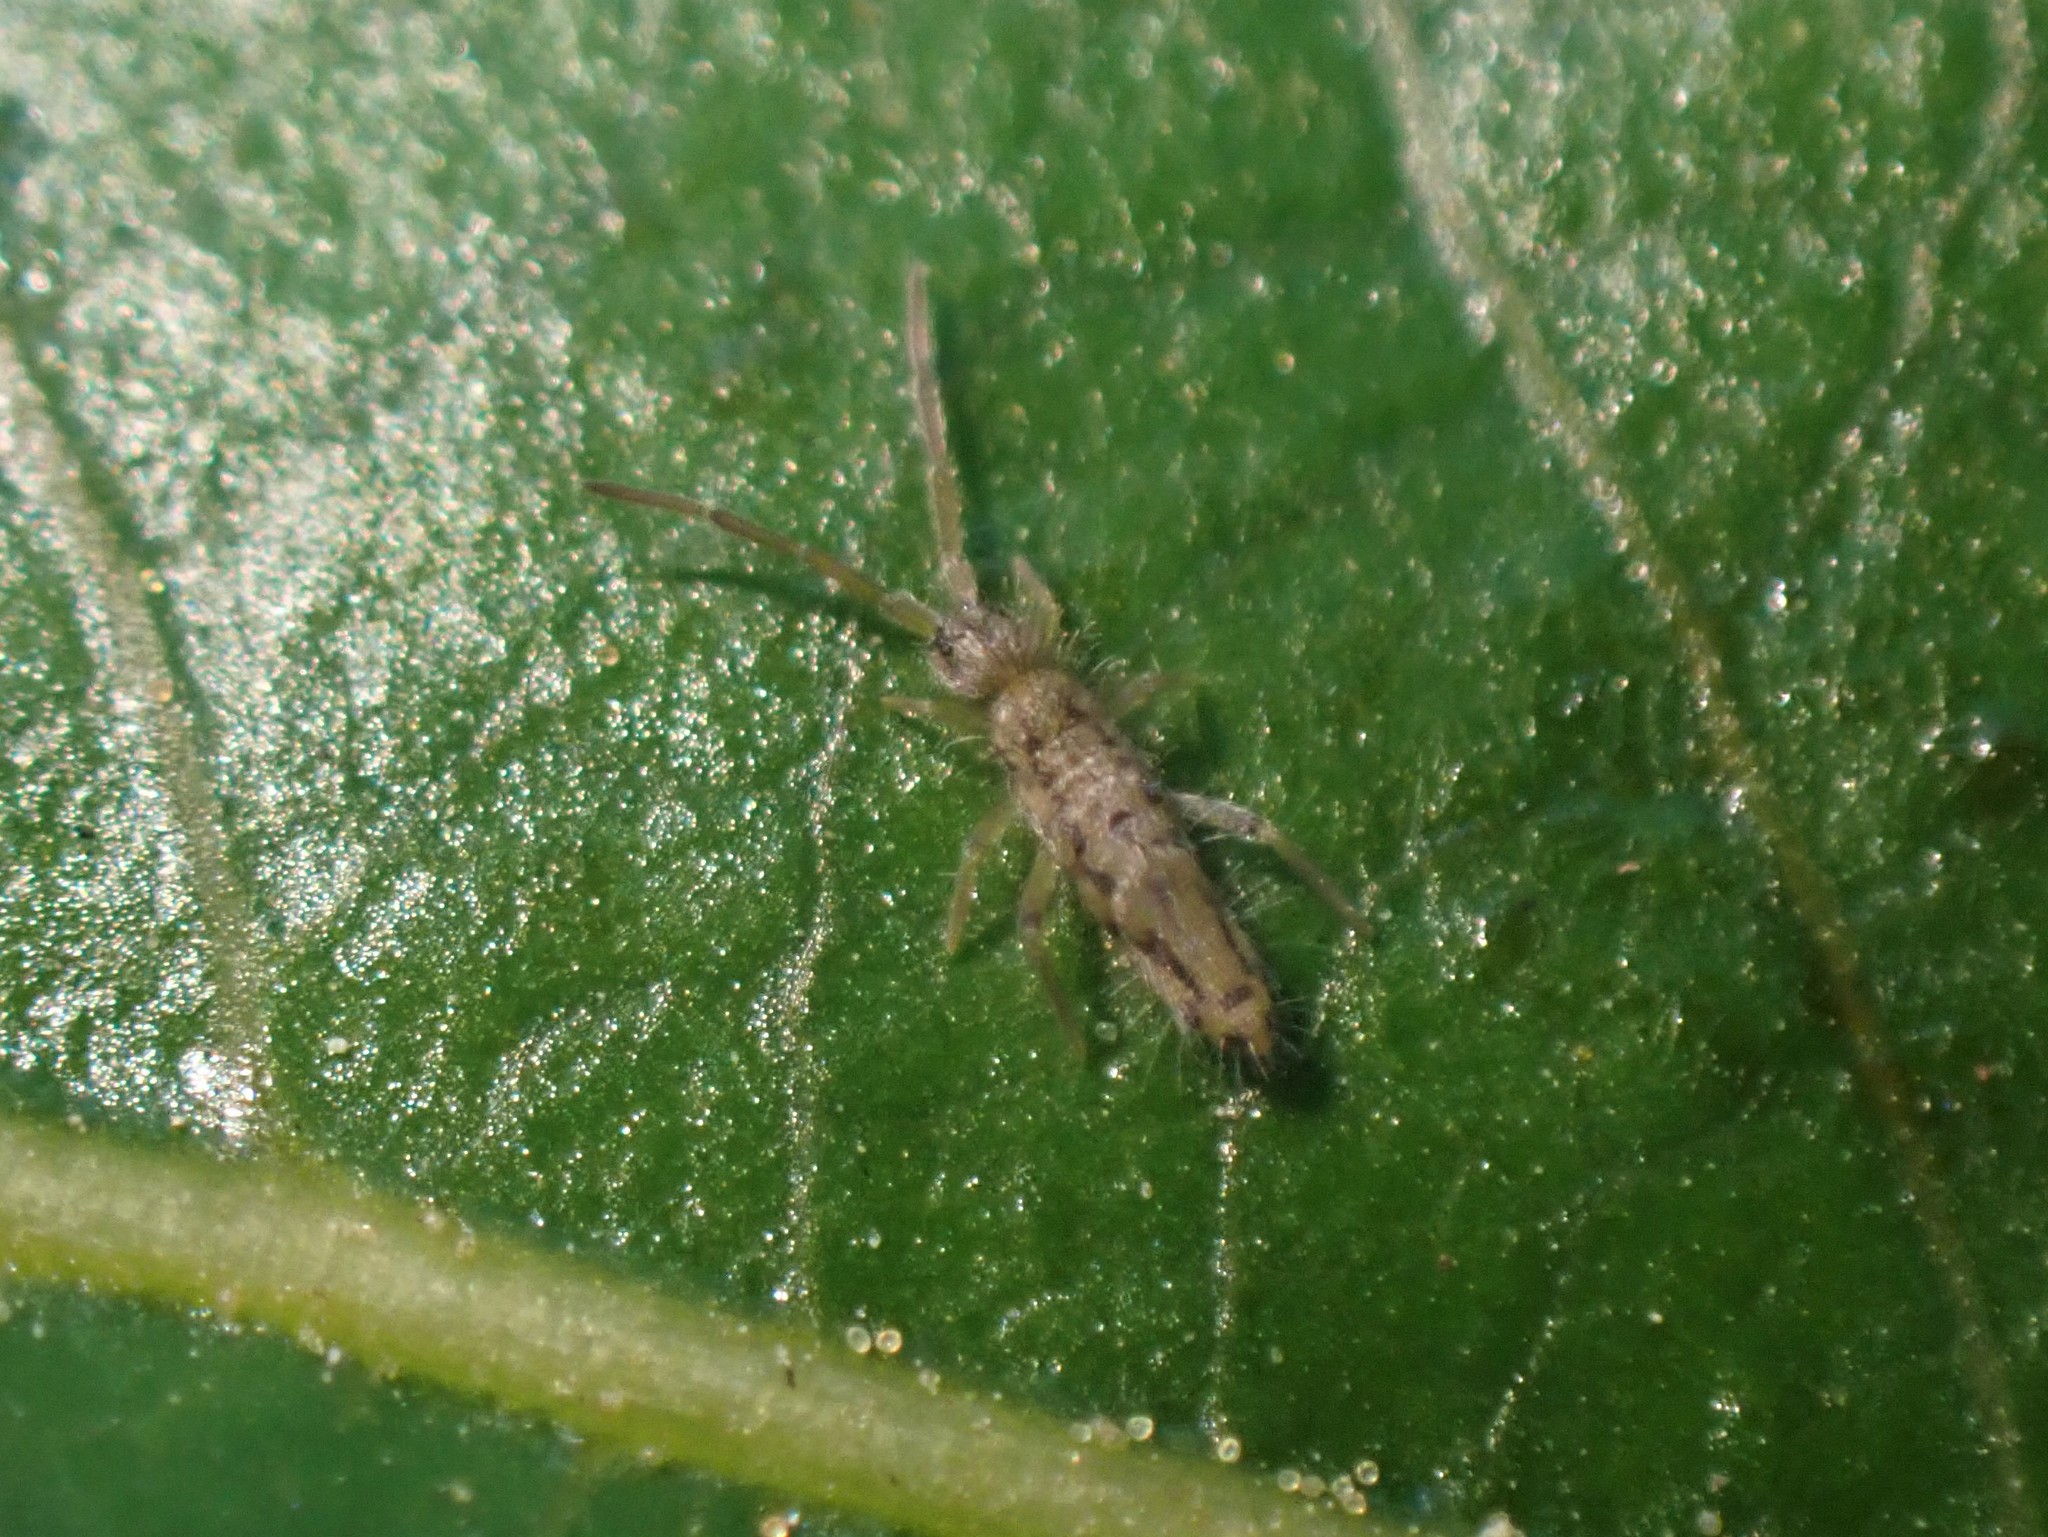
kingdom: Animalia
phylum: Arthropoda
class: Collembola
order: Entomobryomorpha
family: Entomobryidae
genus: Entomobrya
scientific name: Entomobrya katzi
